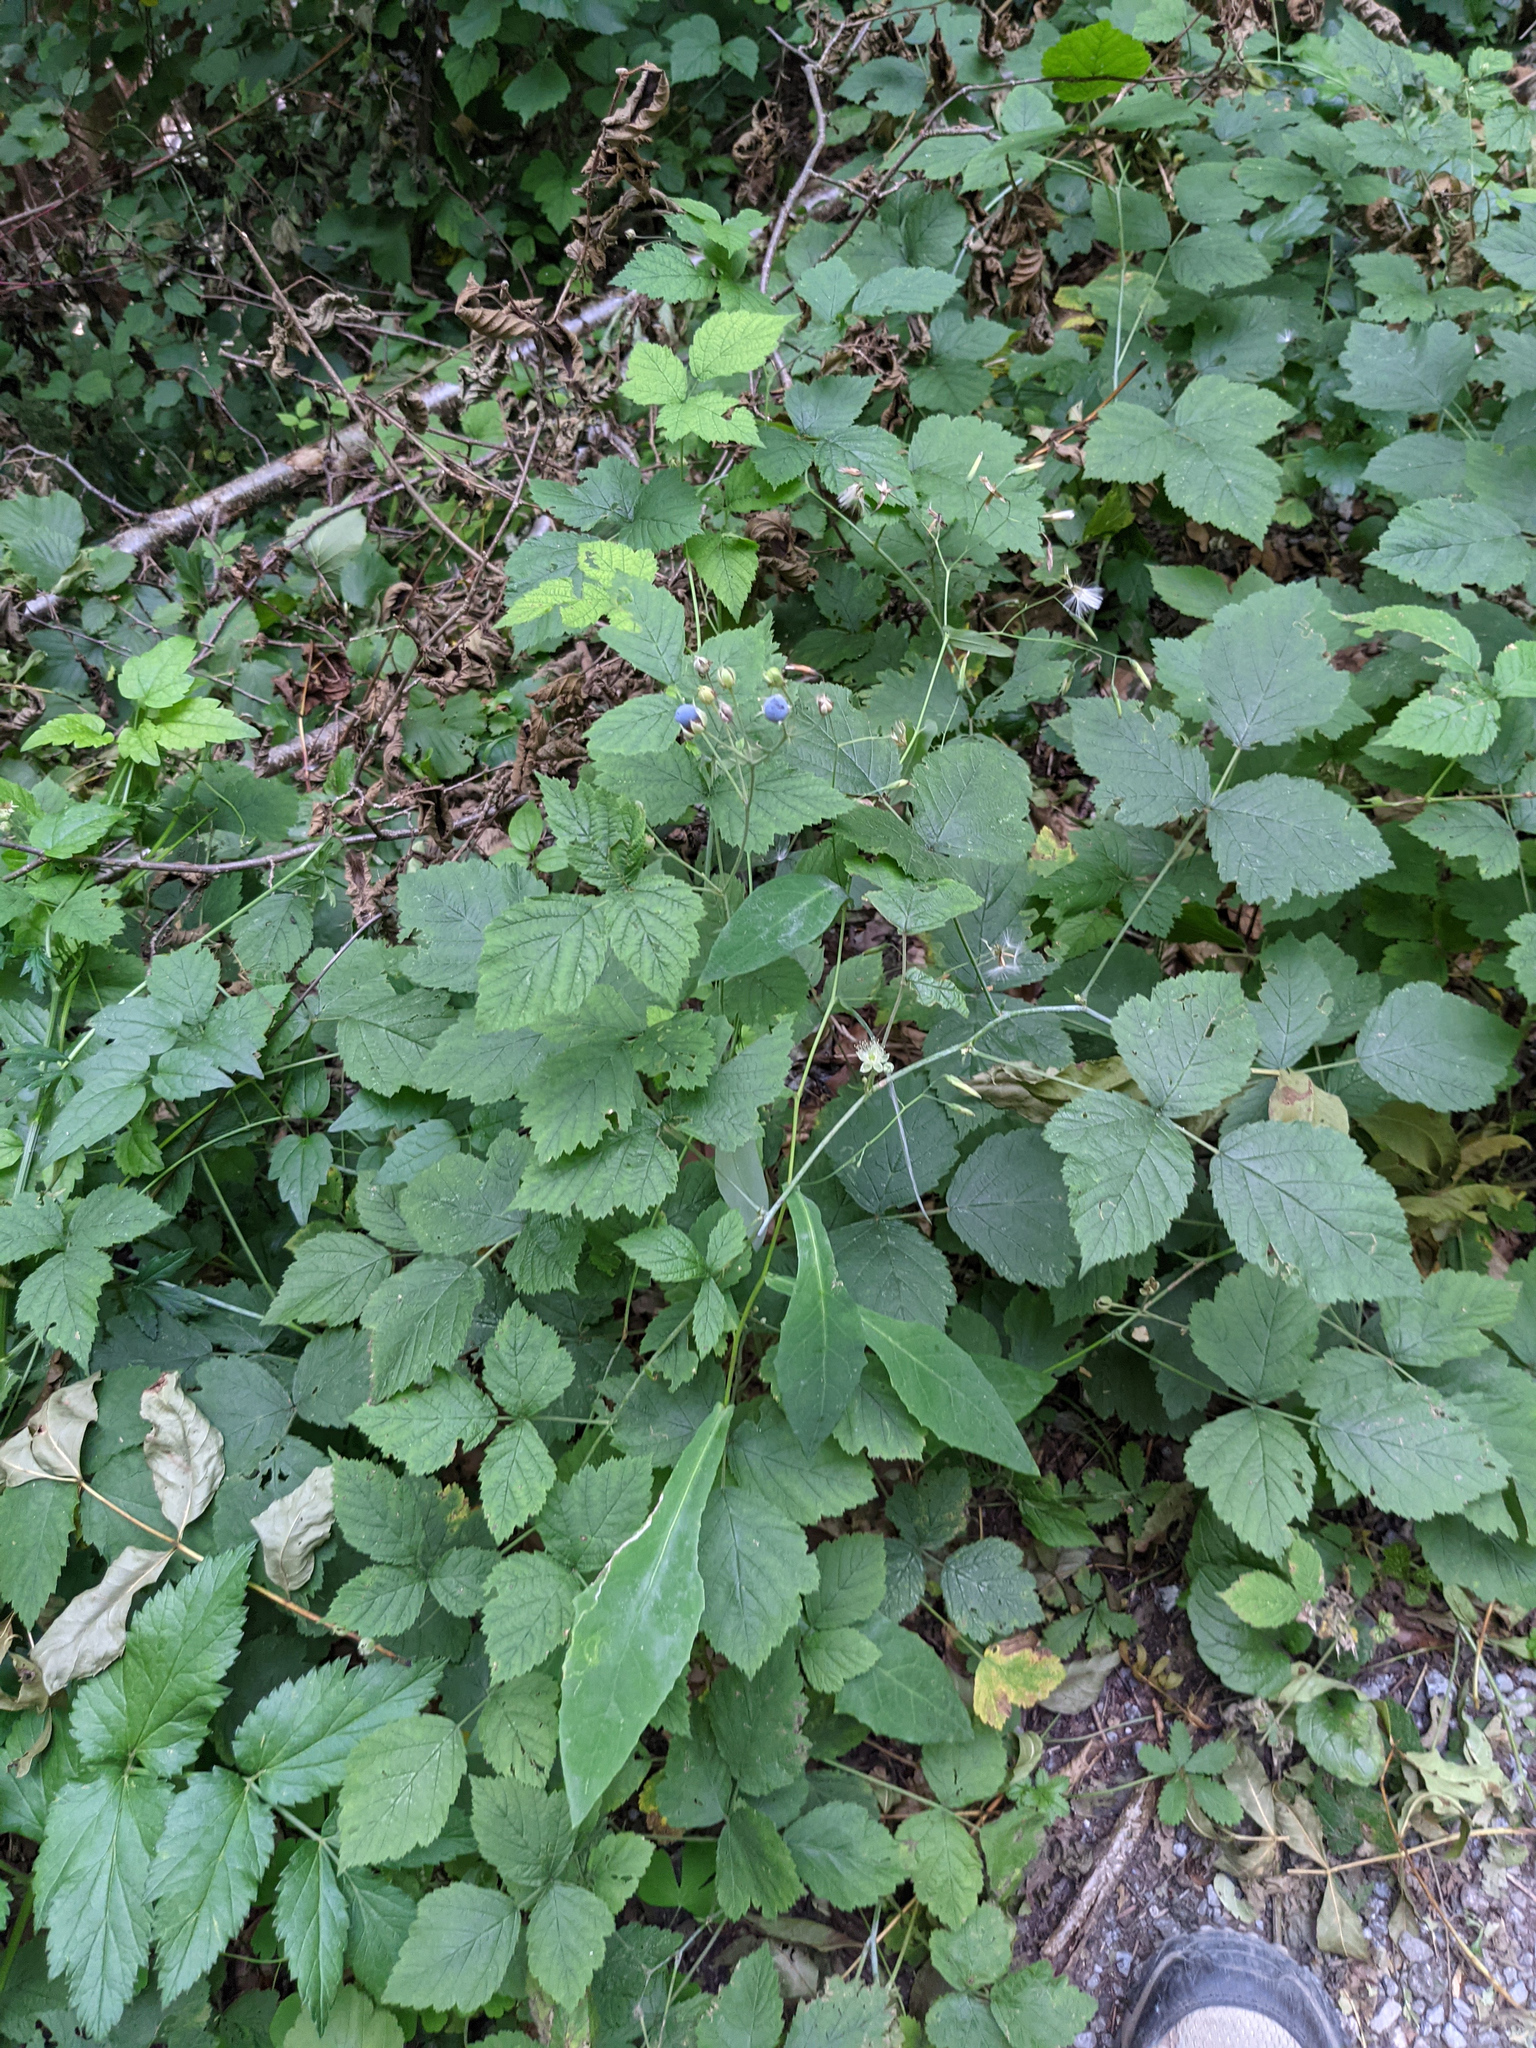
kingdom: Plantae
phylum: Tracheophyta
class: Magnoliopsida
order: Rosales
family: Rosaceae
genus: Rubus
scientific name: Rubus caesius
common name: Dewberry
